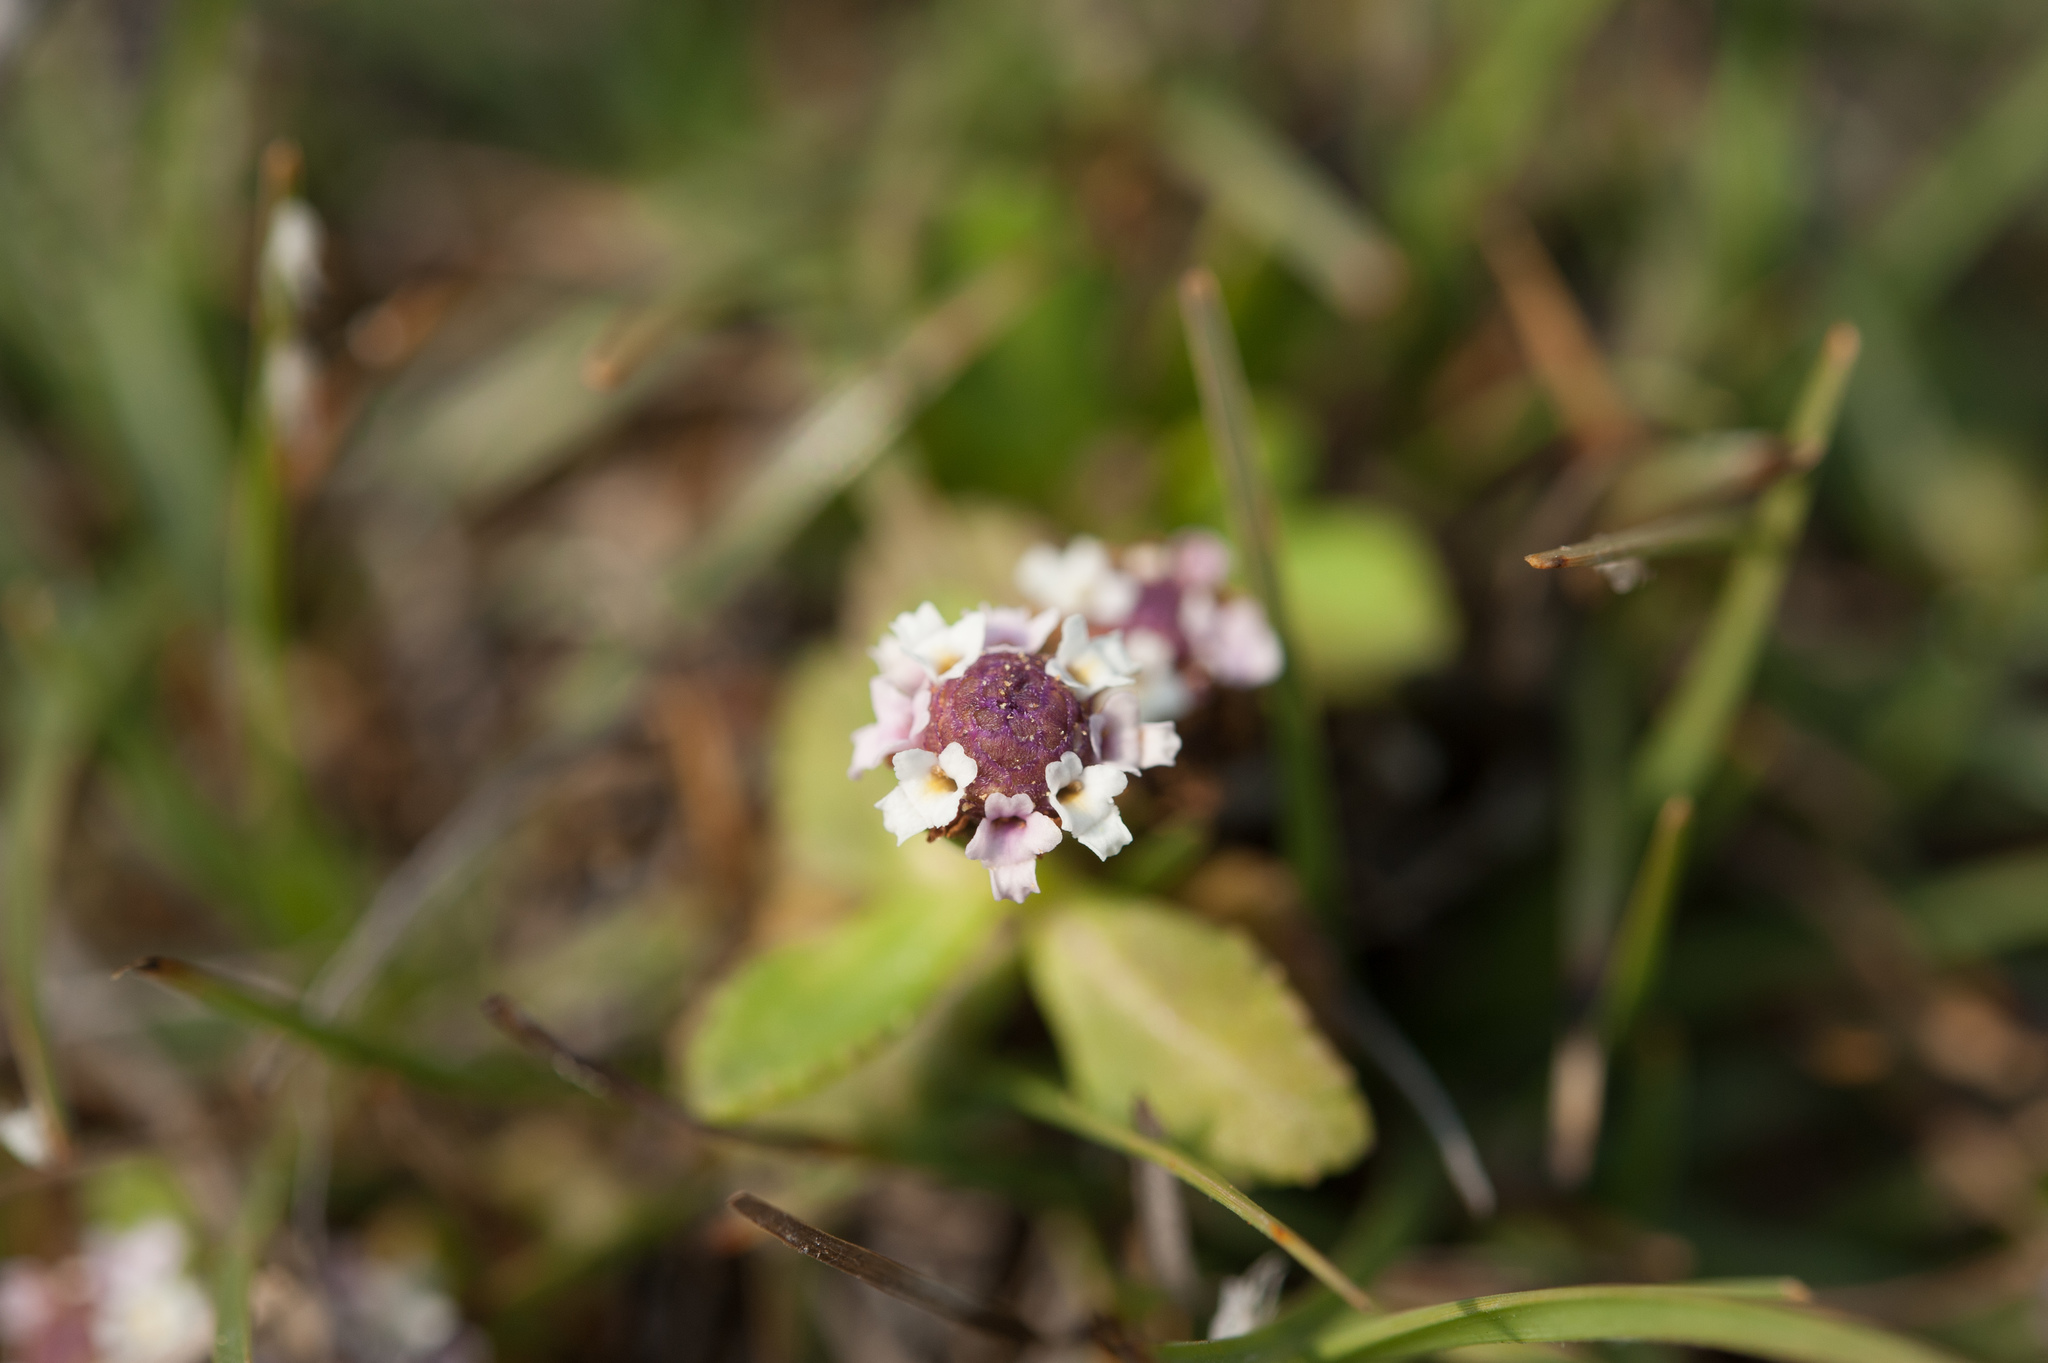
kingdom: Plantae
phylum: Tracheophyta
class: Magnoliopsida
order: Lamiales
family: Verbenaceae
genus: Phyla
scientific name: Phyla nodiflora
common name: Frogfruit
